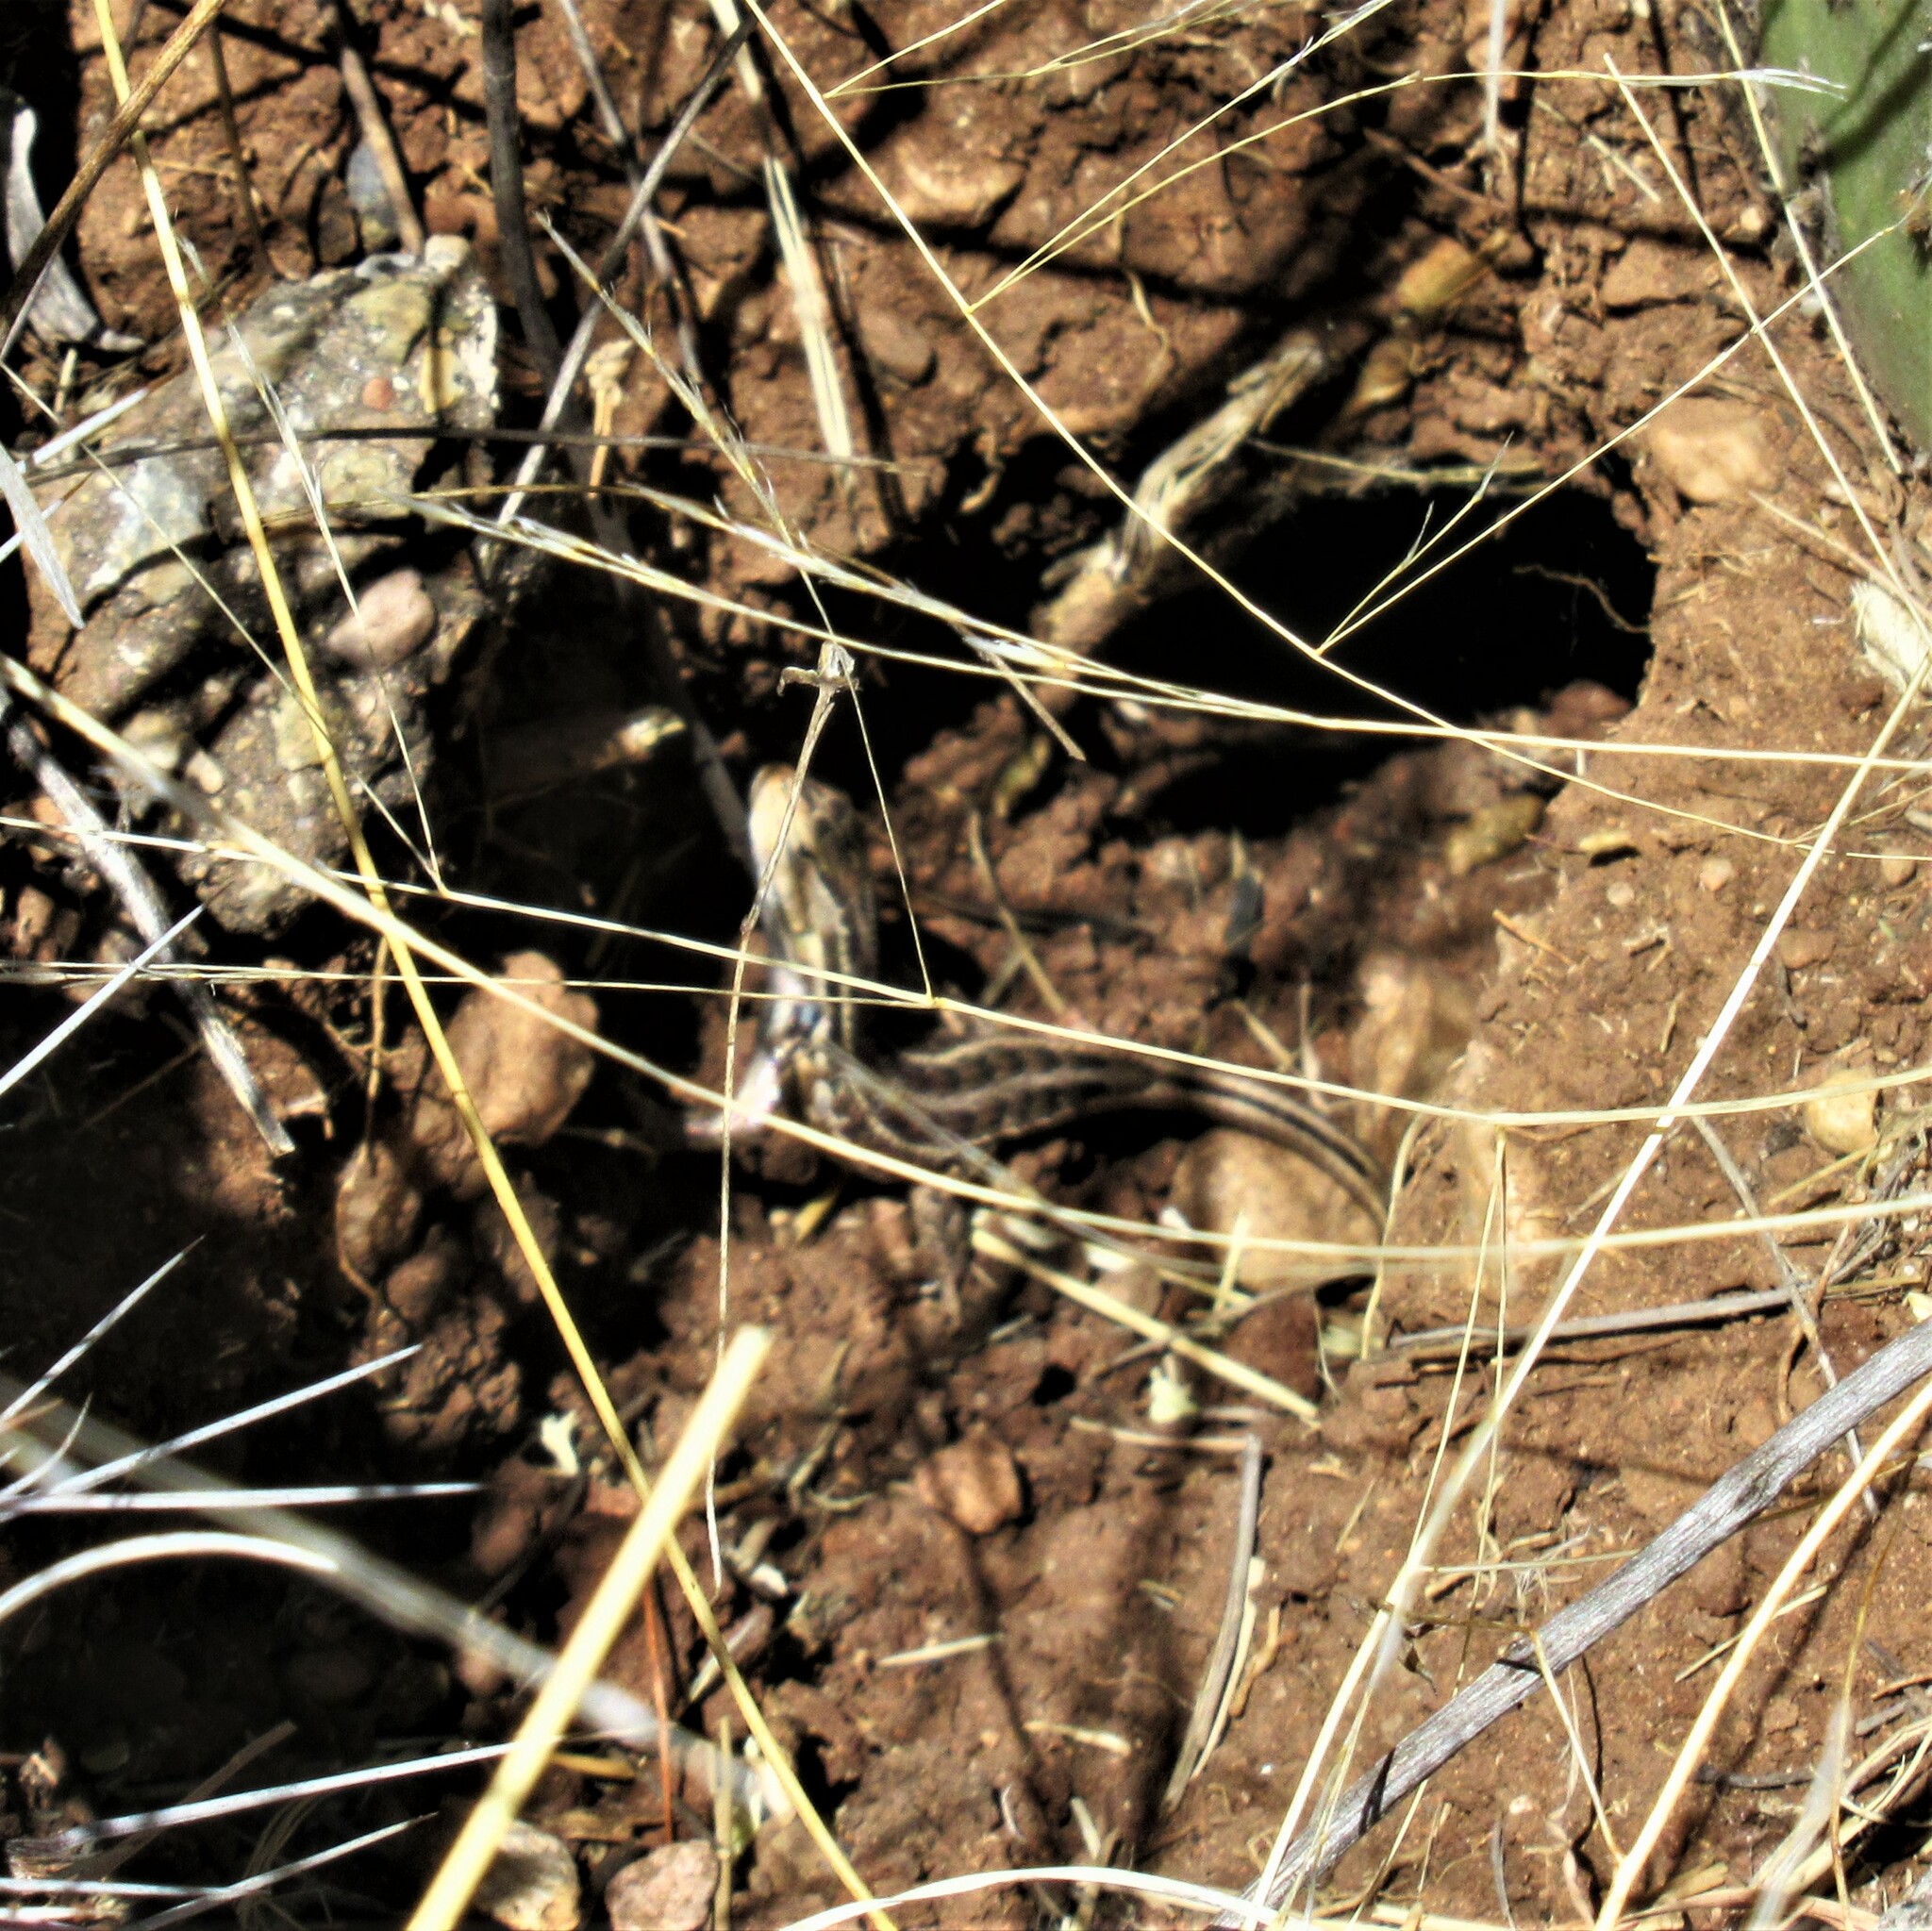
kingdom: Animalia
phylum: Chordata
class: Squamata
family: Phrynosomatidae
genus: Sceloporus
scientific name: Sceloporus slevini
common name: Slevins’s bunch grass lizard
